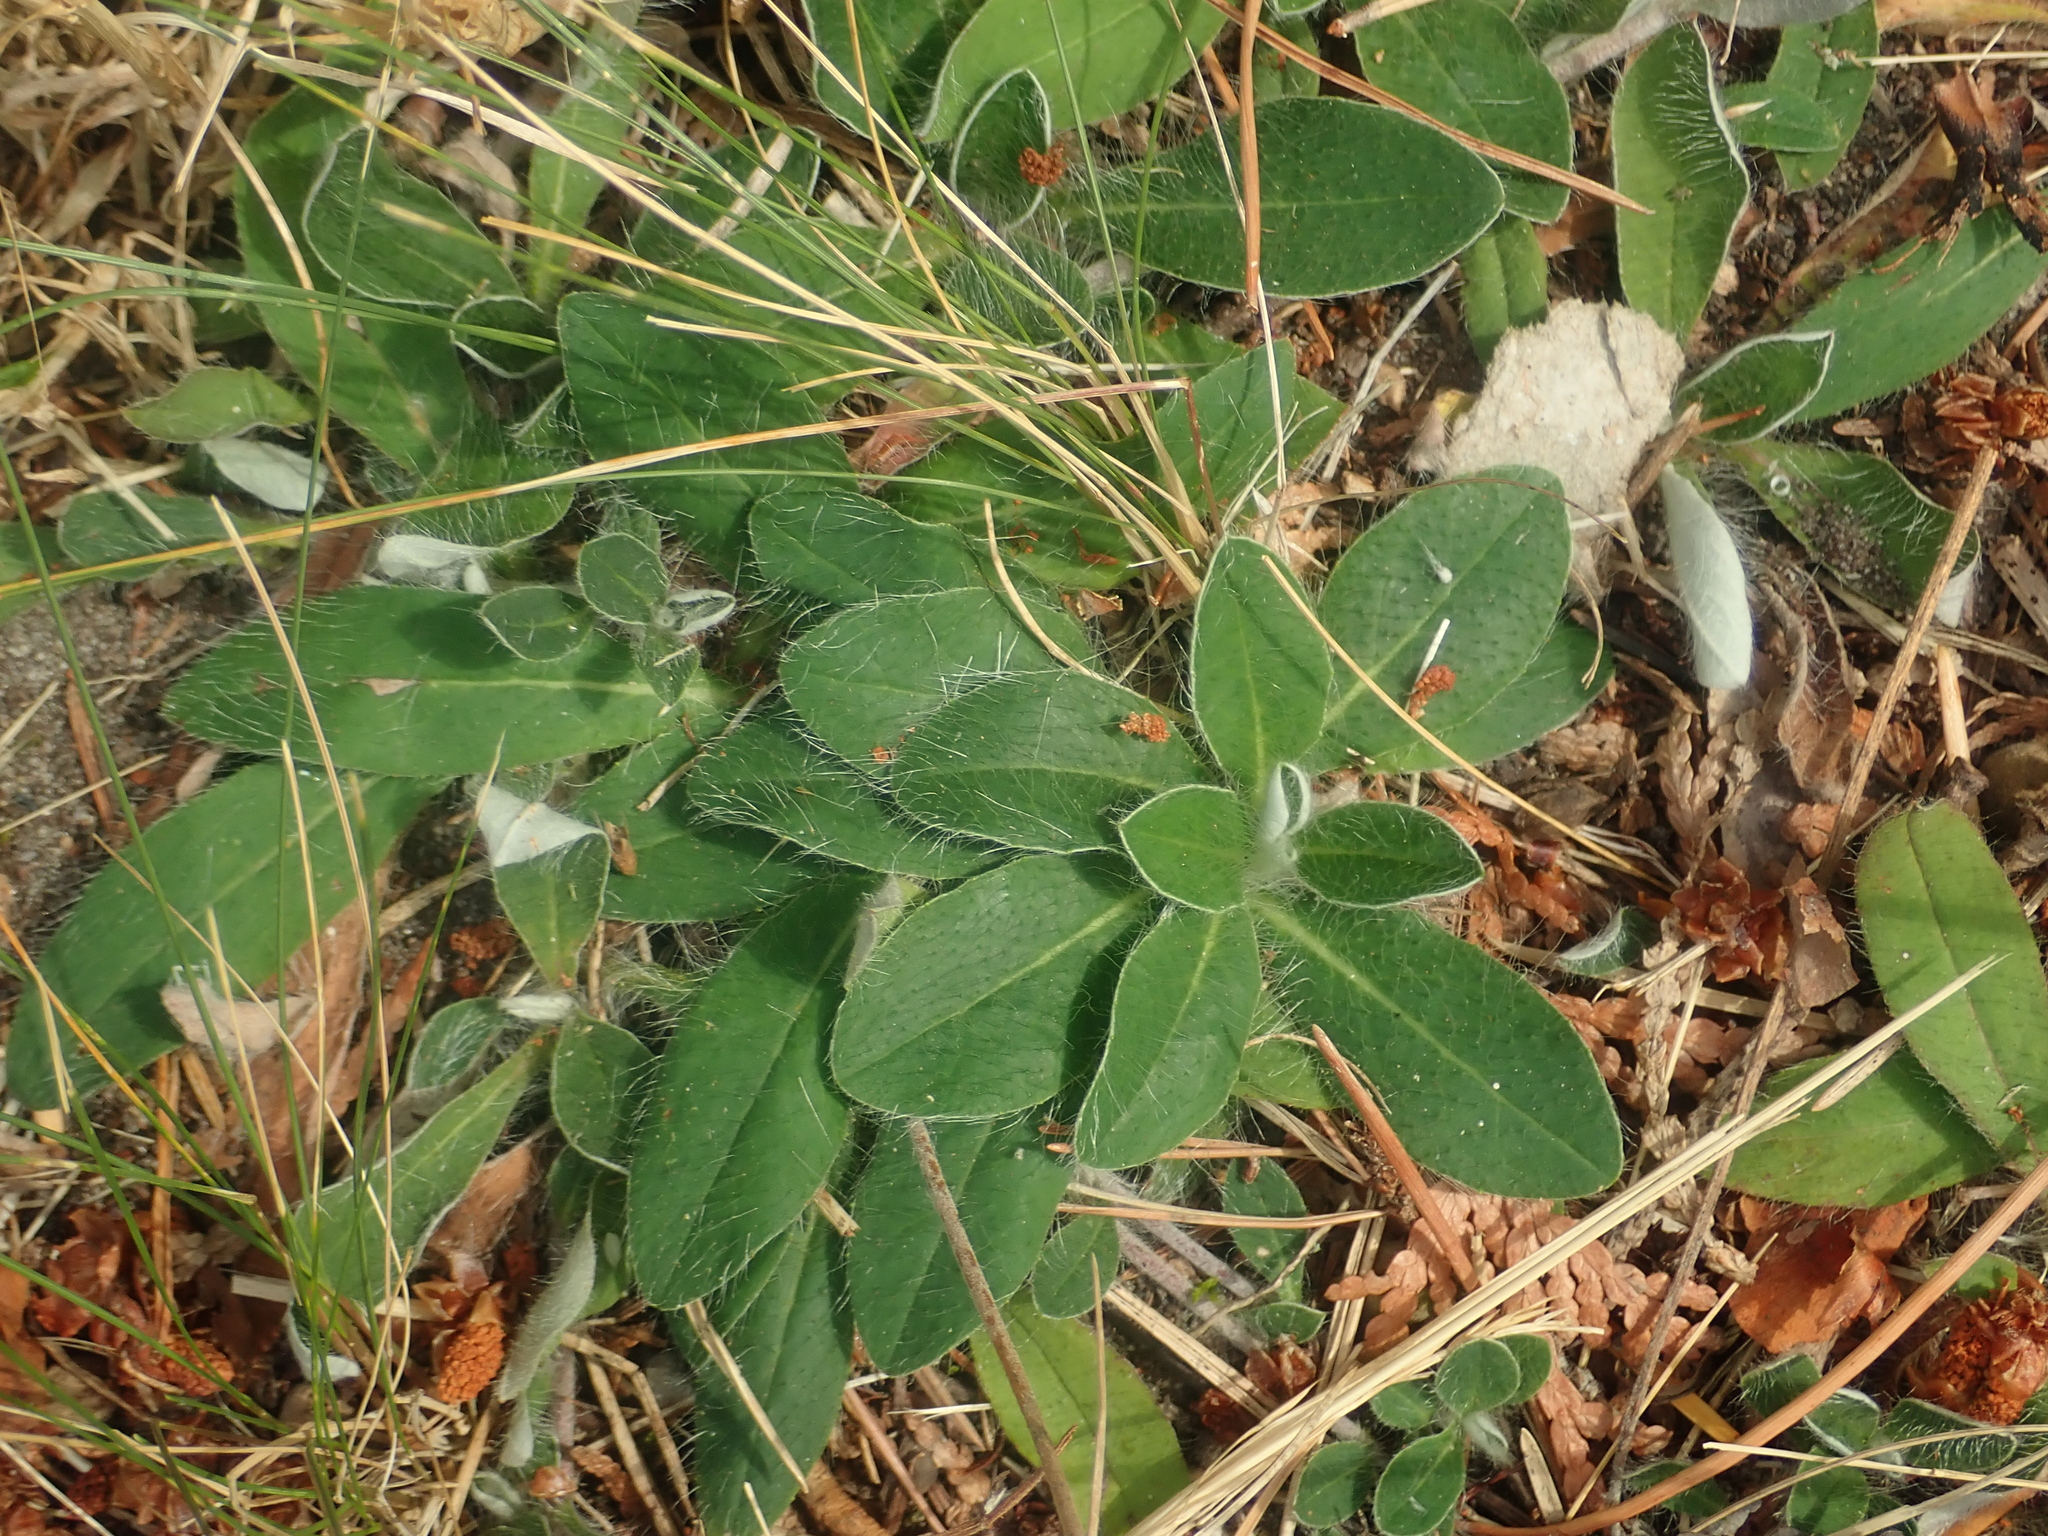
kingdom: Plantae
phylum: Tracheophyta
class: Magnoliopsida
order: Asterales
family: Asteraceae
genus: Pilosella
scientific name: Pilosella officinarum
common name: Mouse-ear hawkweed
